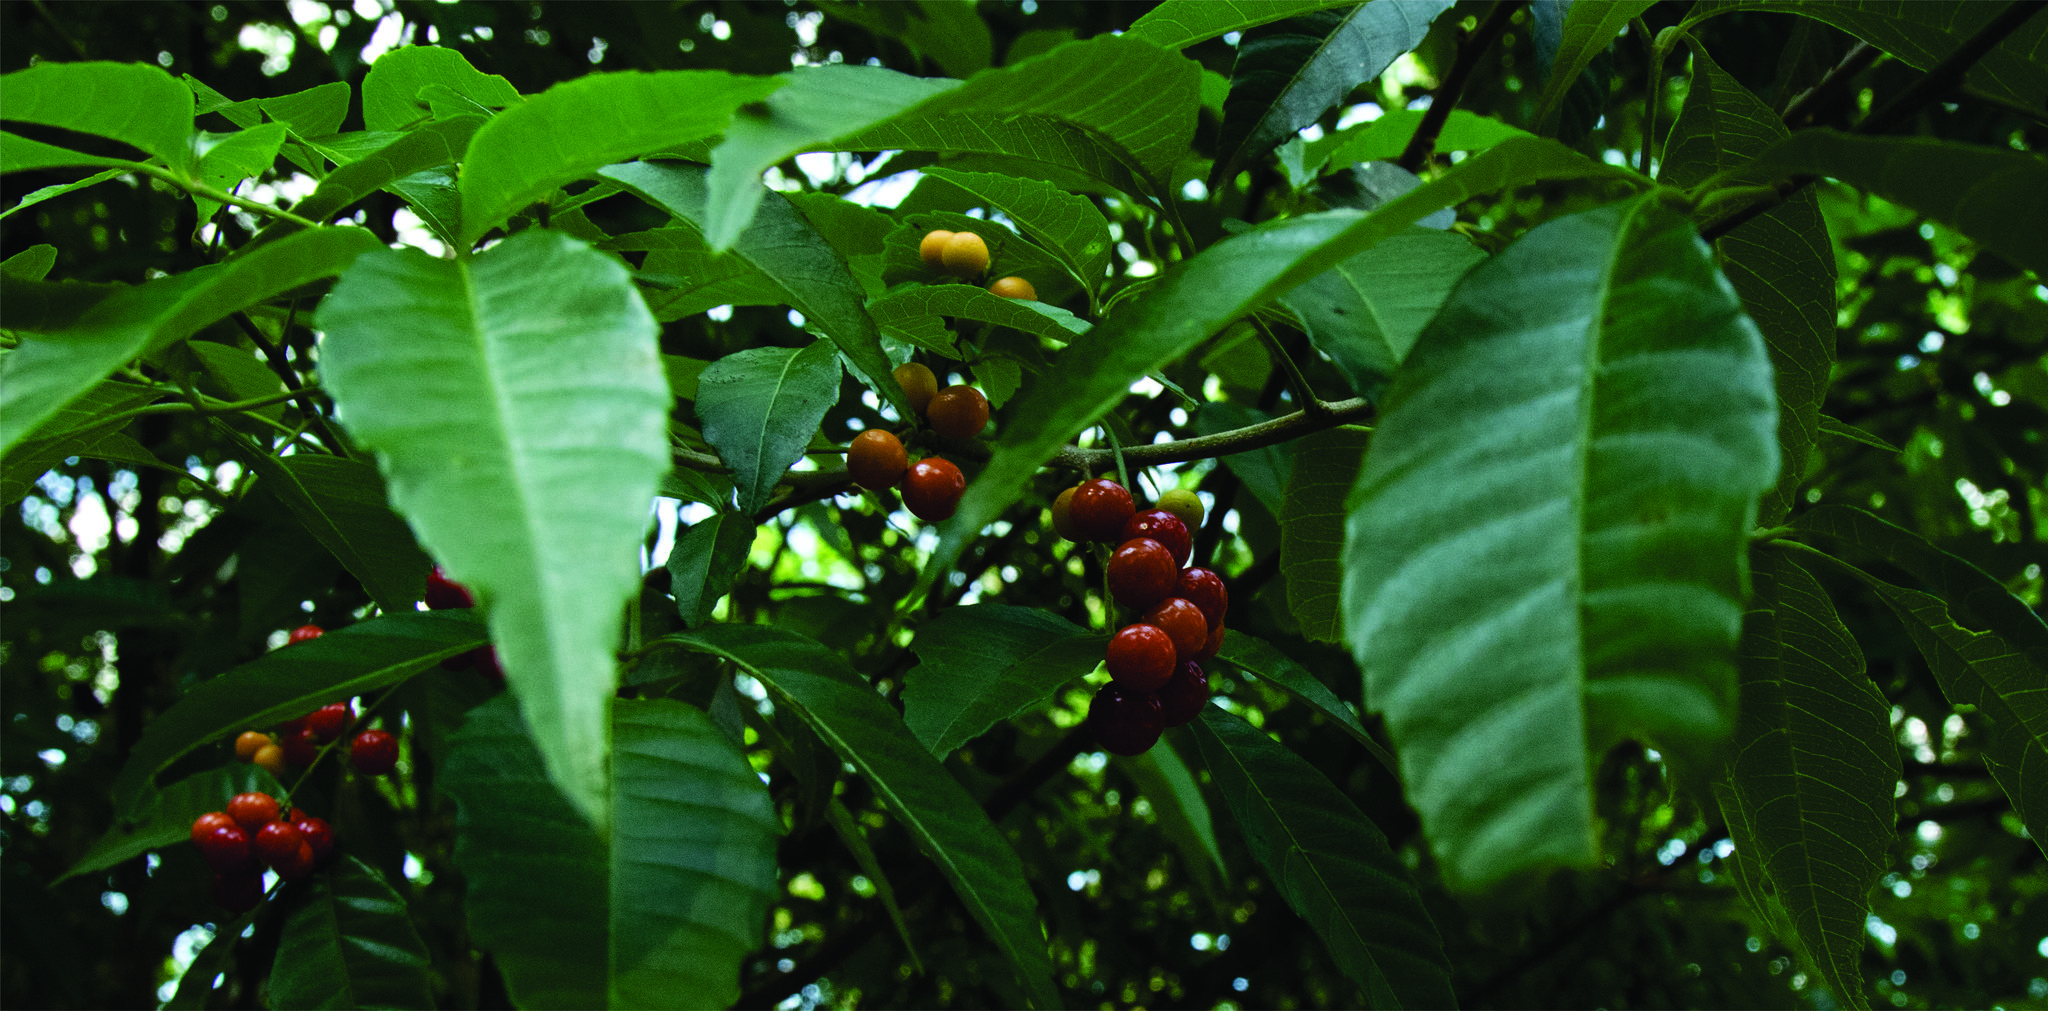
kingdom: Plantae
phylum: Tracheophyta
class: Magnoliopsida
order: Sapindales
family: Sapindaceae
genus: Allophylus
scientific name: Allophylus edulis
